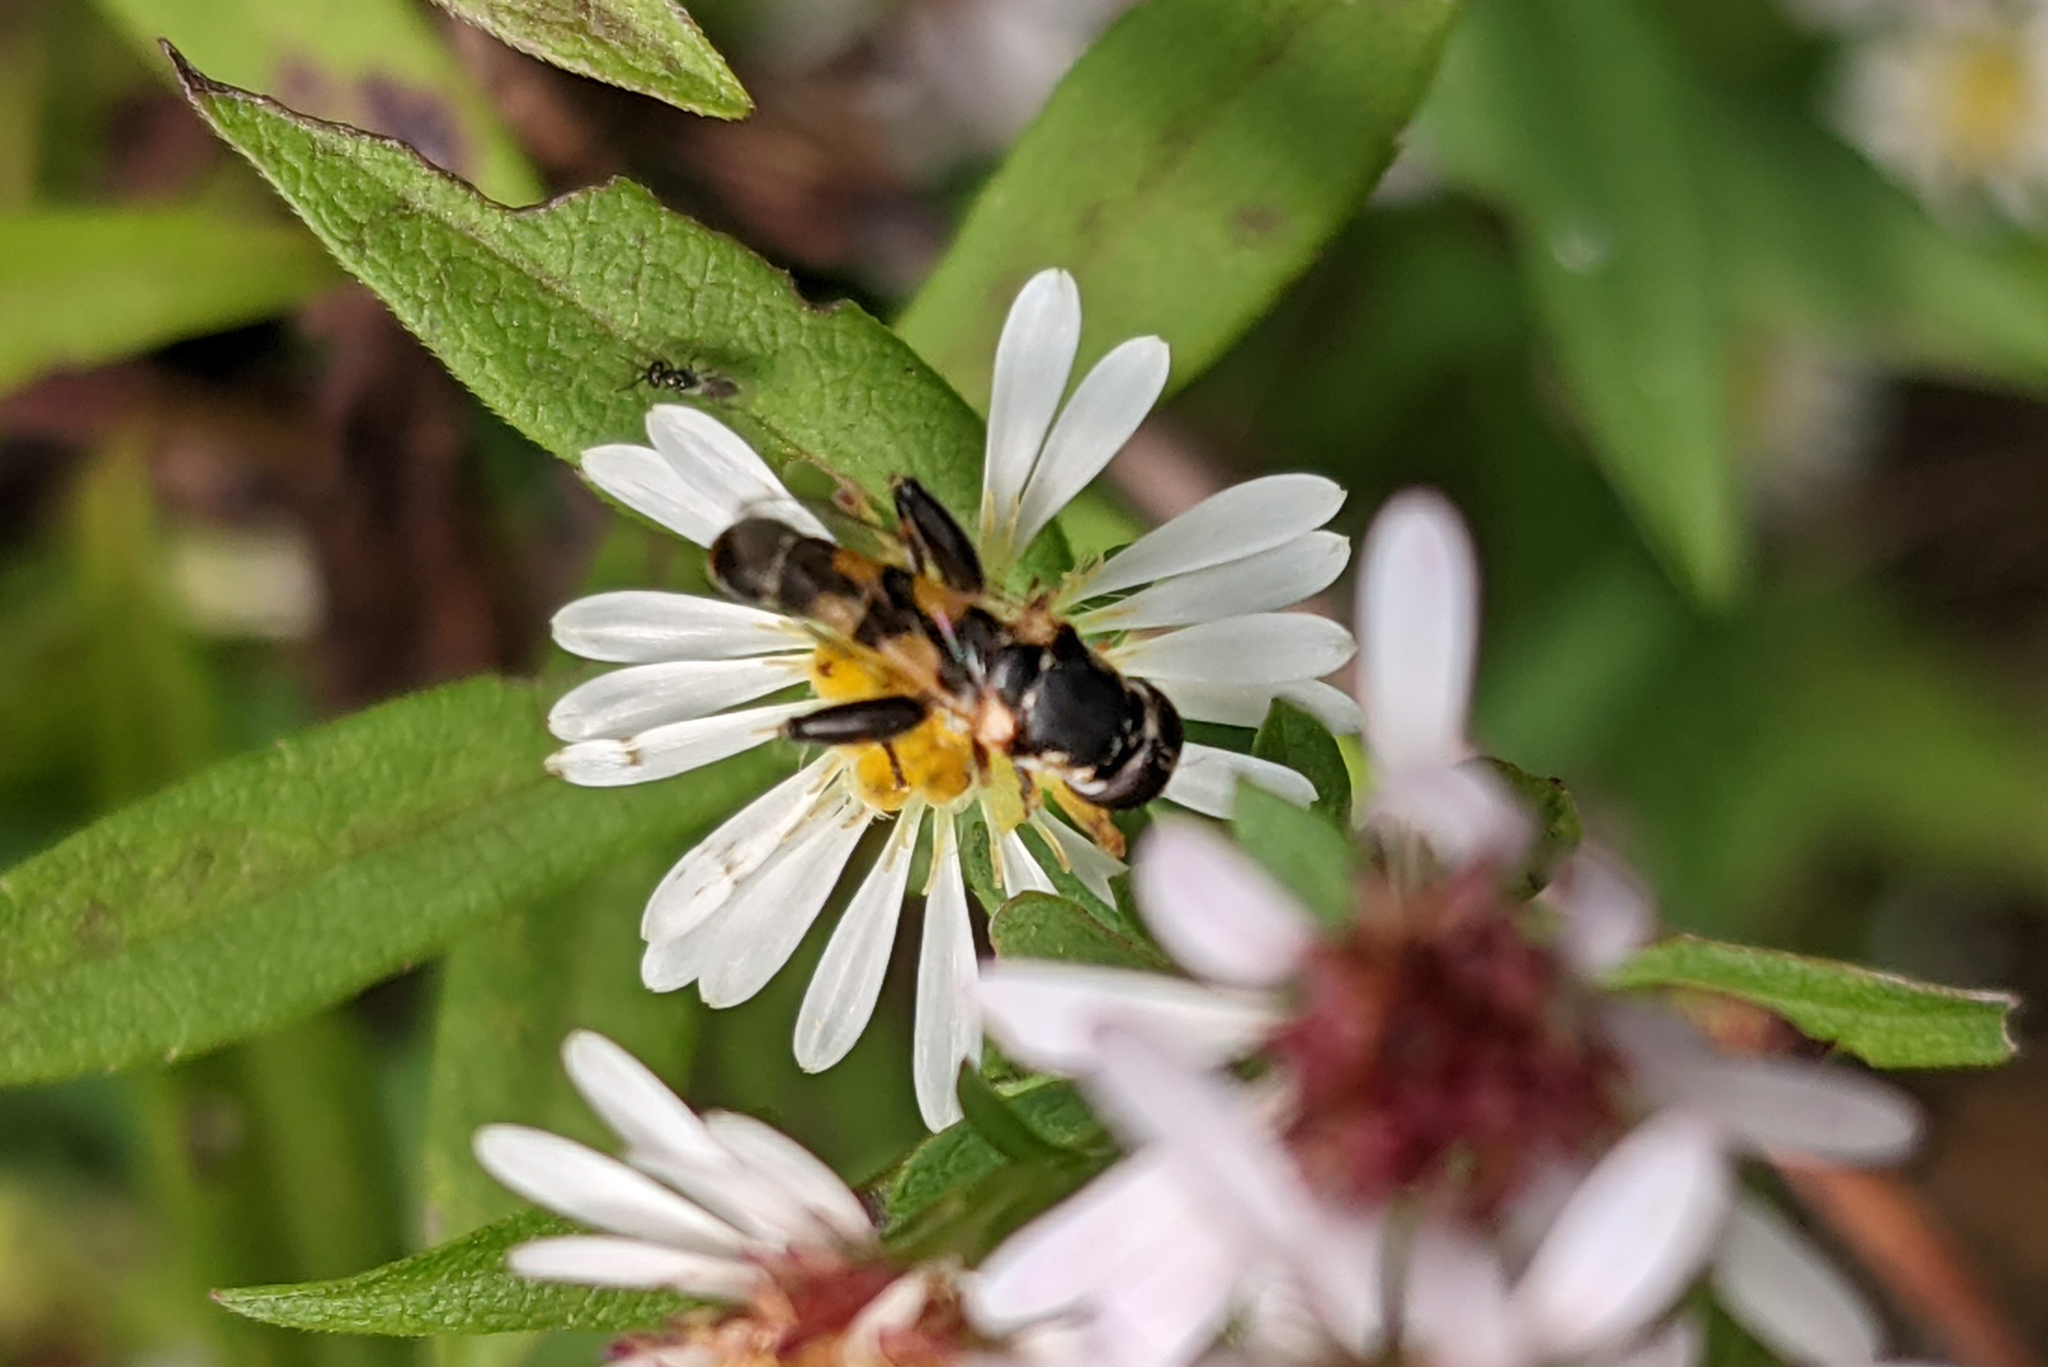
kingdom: Animalia
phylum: Arthropoda
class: Insecta
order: Diptera
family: Syrphidae
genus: Syritta
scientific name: Syritta pipiens
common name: Hover fly
